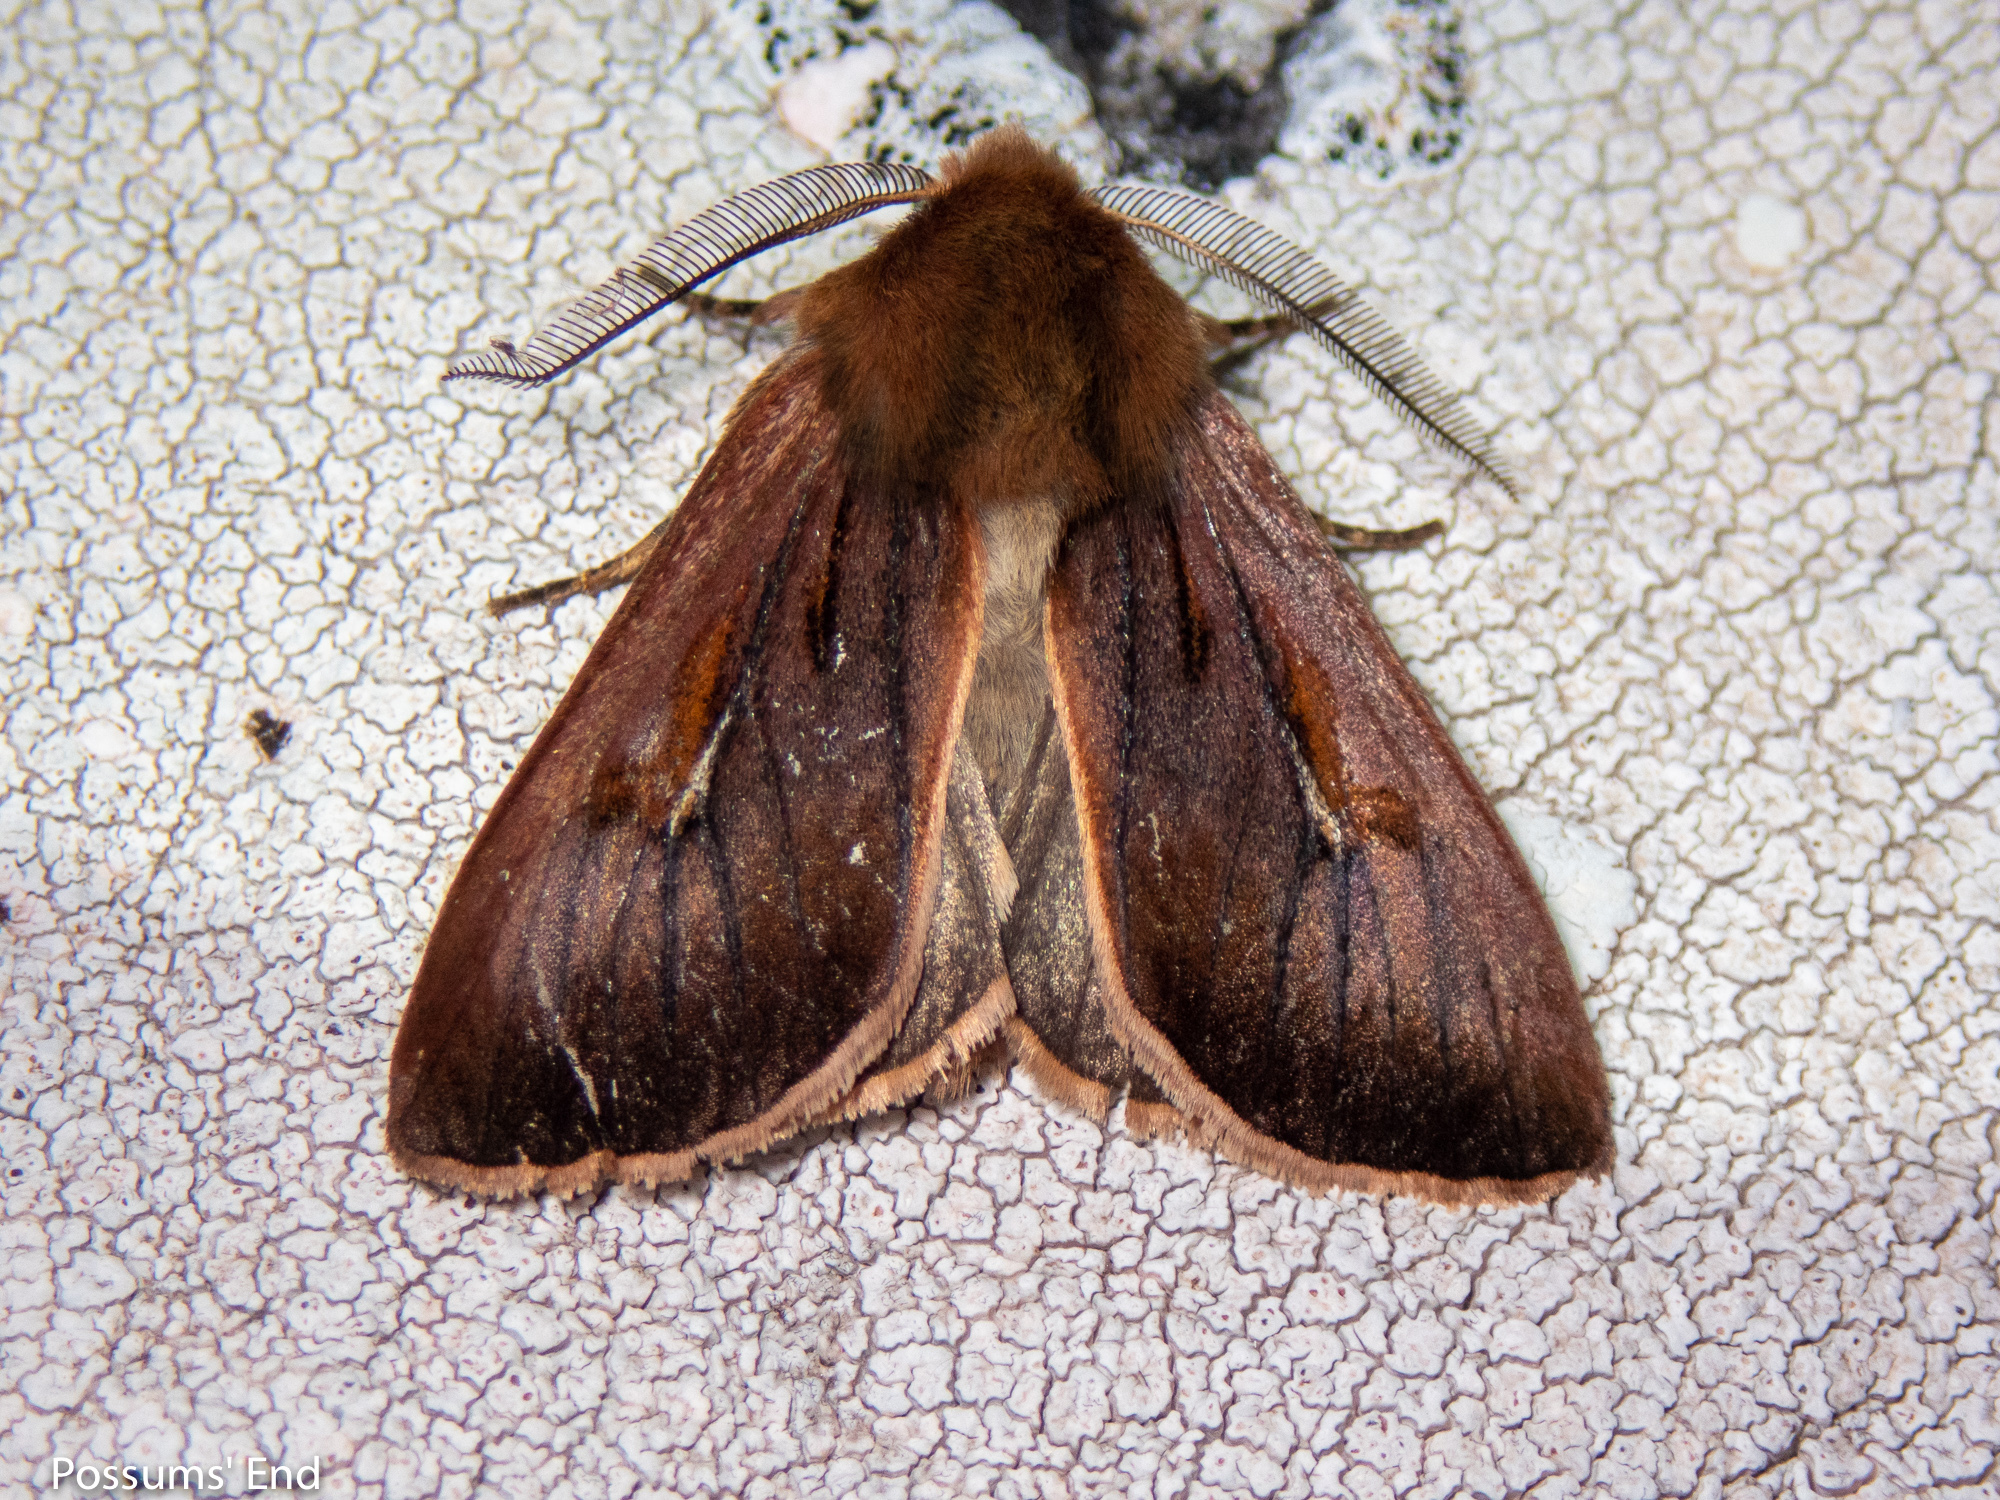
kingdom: Animalia
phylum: Arthropoda
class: Insecta
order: Lepidoptera
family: Noctuidae
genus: Ichneutica
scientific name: Ichneutica dione
